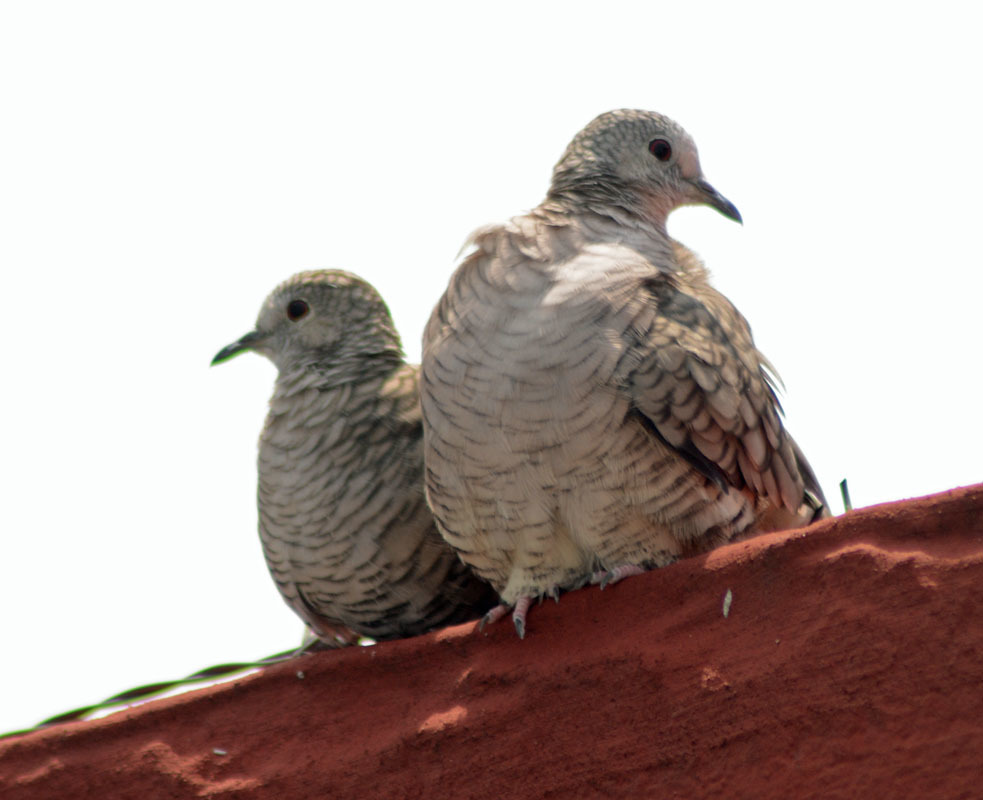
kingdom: Animalia
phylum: Chordata
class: Aves
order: Columbiformes
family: Columbidae
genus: Columbina
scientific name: Columbina inca
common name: Inca dove
